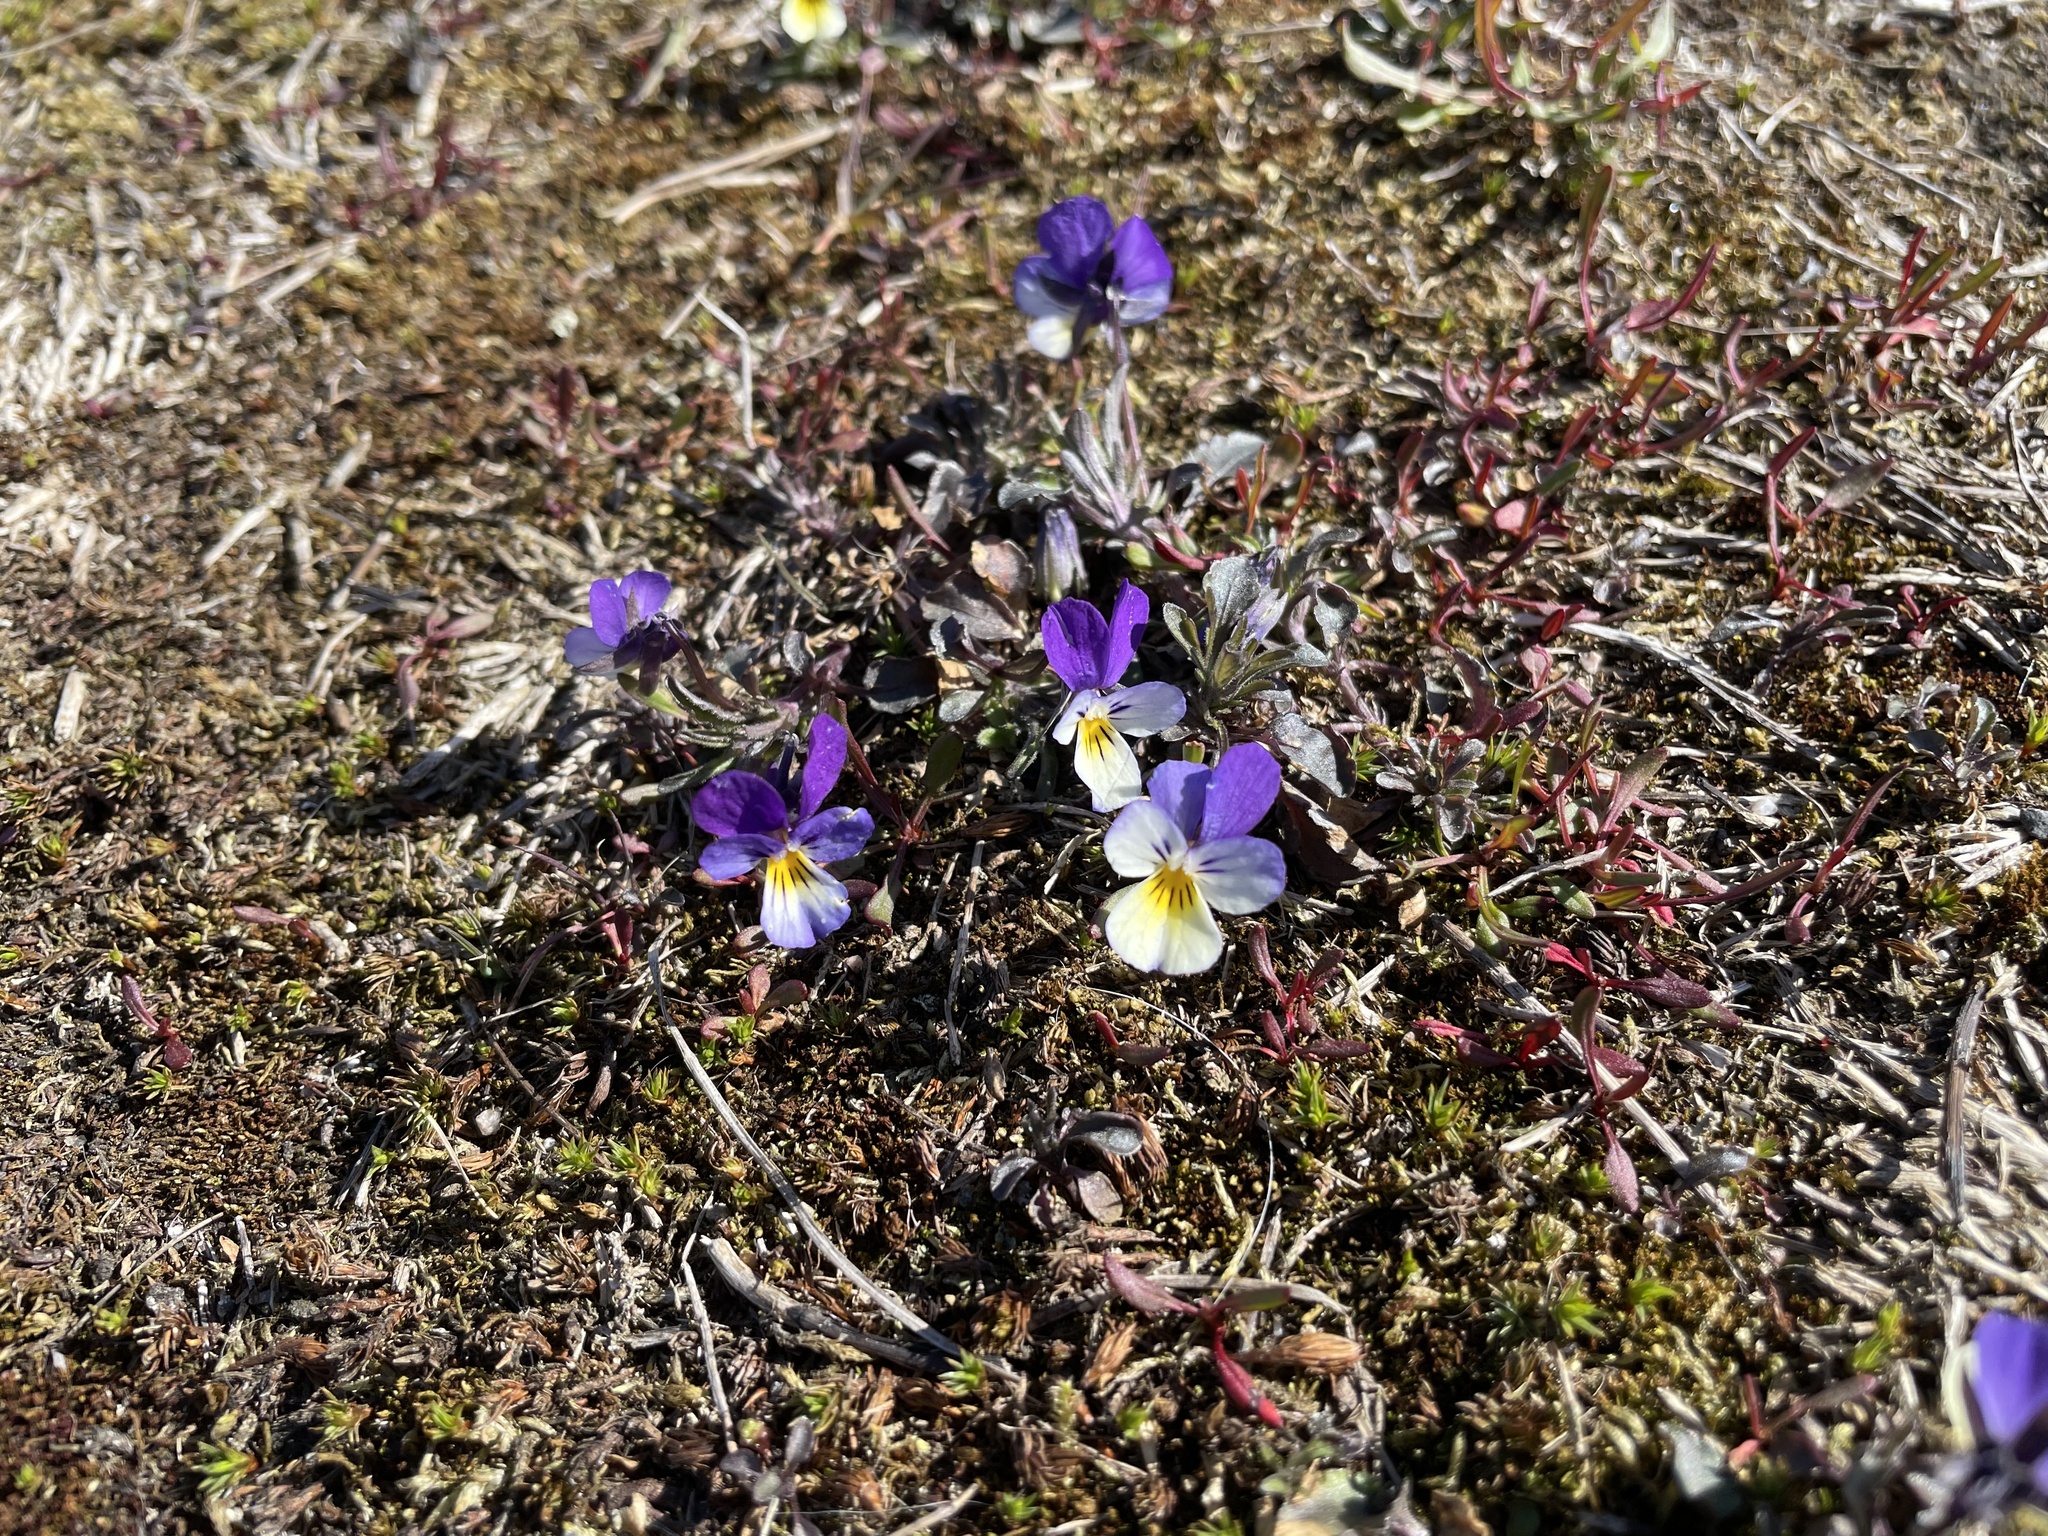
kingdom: Plantae
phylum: Tracheophyta
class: Magnoliopsida
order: Malpighiales
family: Violaceae
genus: Viola
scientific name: Viola tricolor
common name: Pansy
